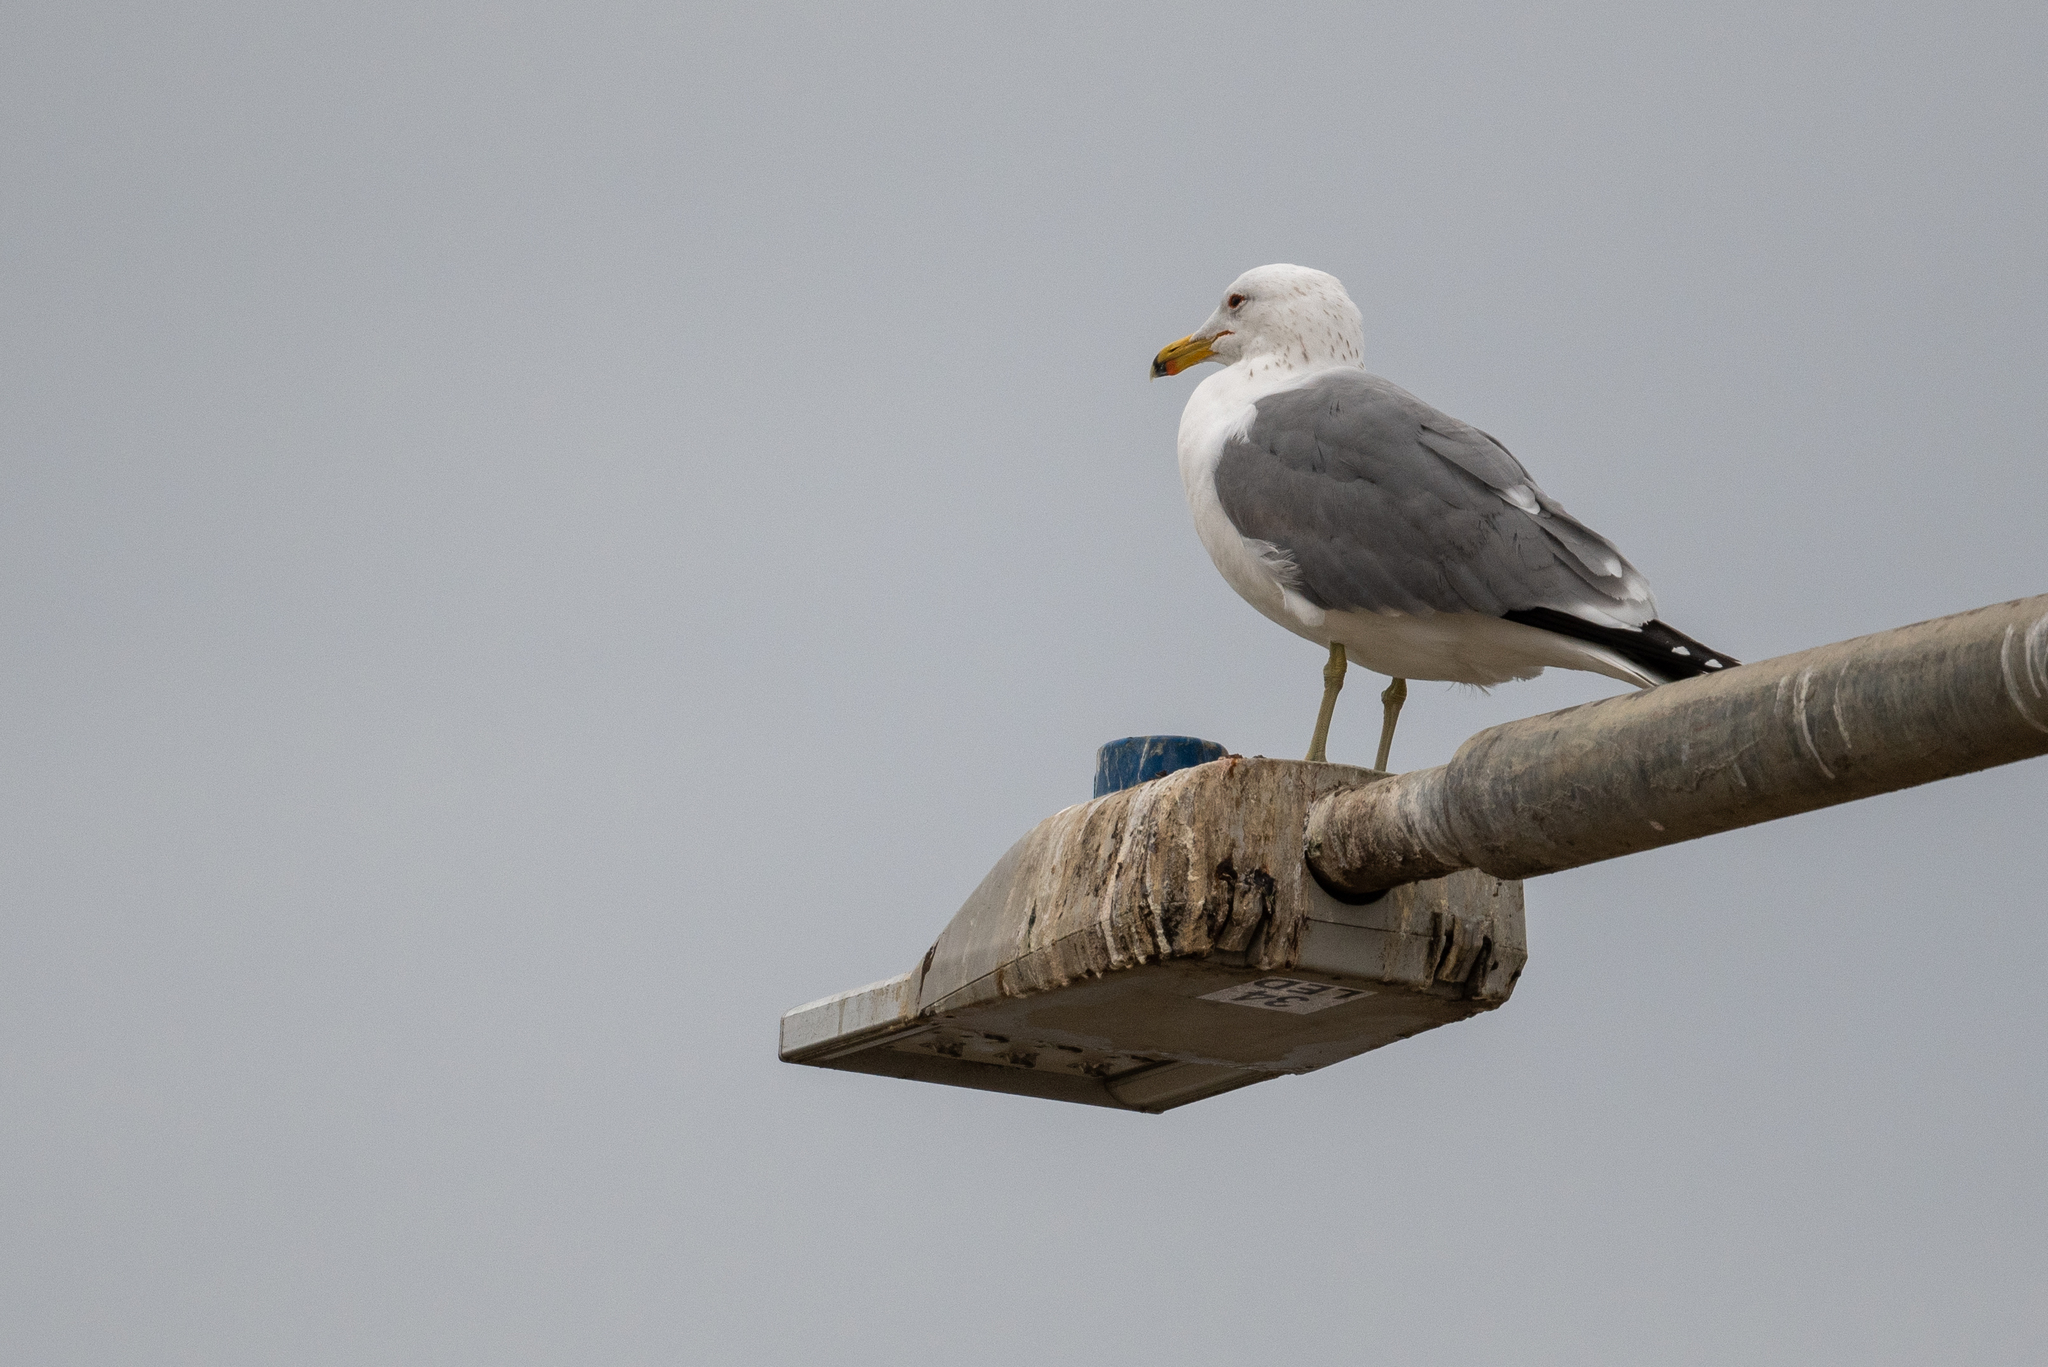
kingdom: Animalia
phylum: Chordata
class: Aves
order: Charadriiformes
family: Laridae
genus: Larus
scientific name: Larus californicus
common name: California gull
